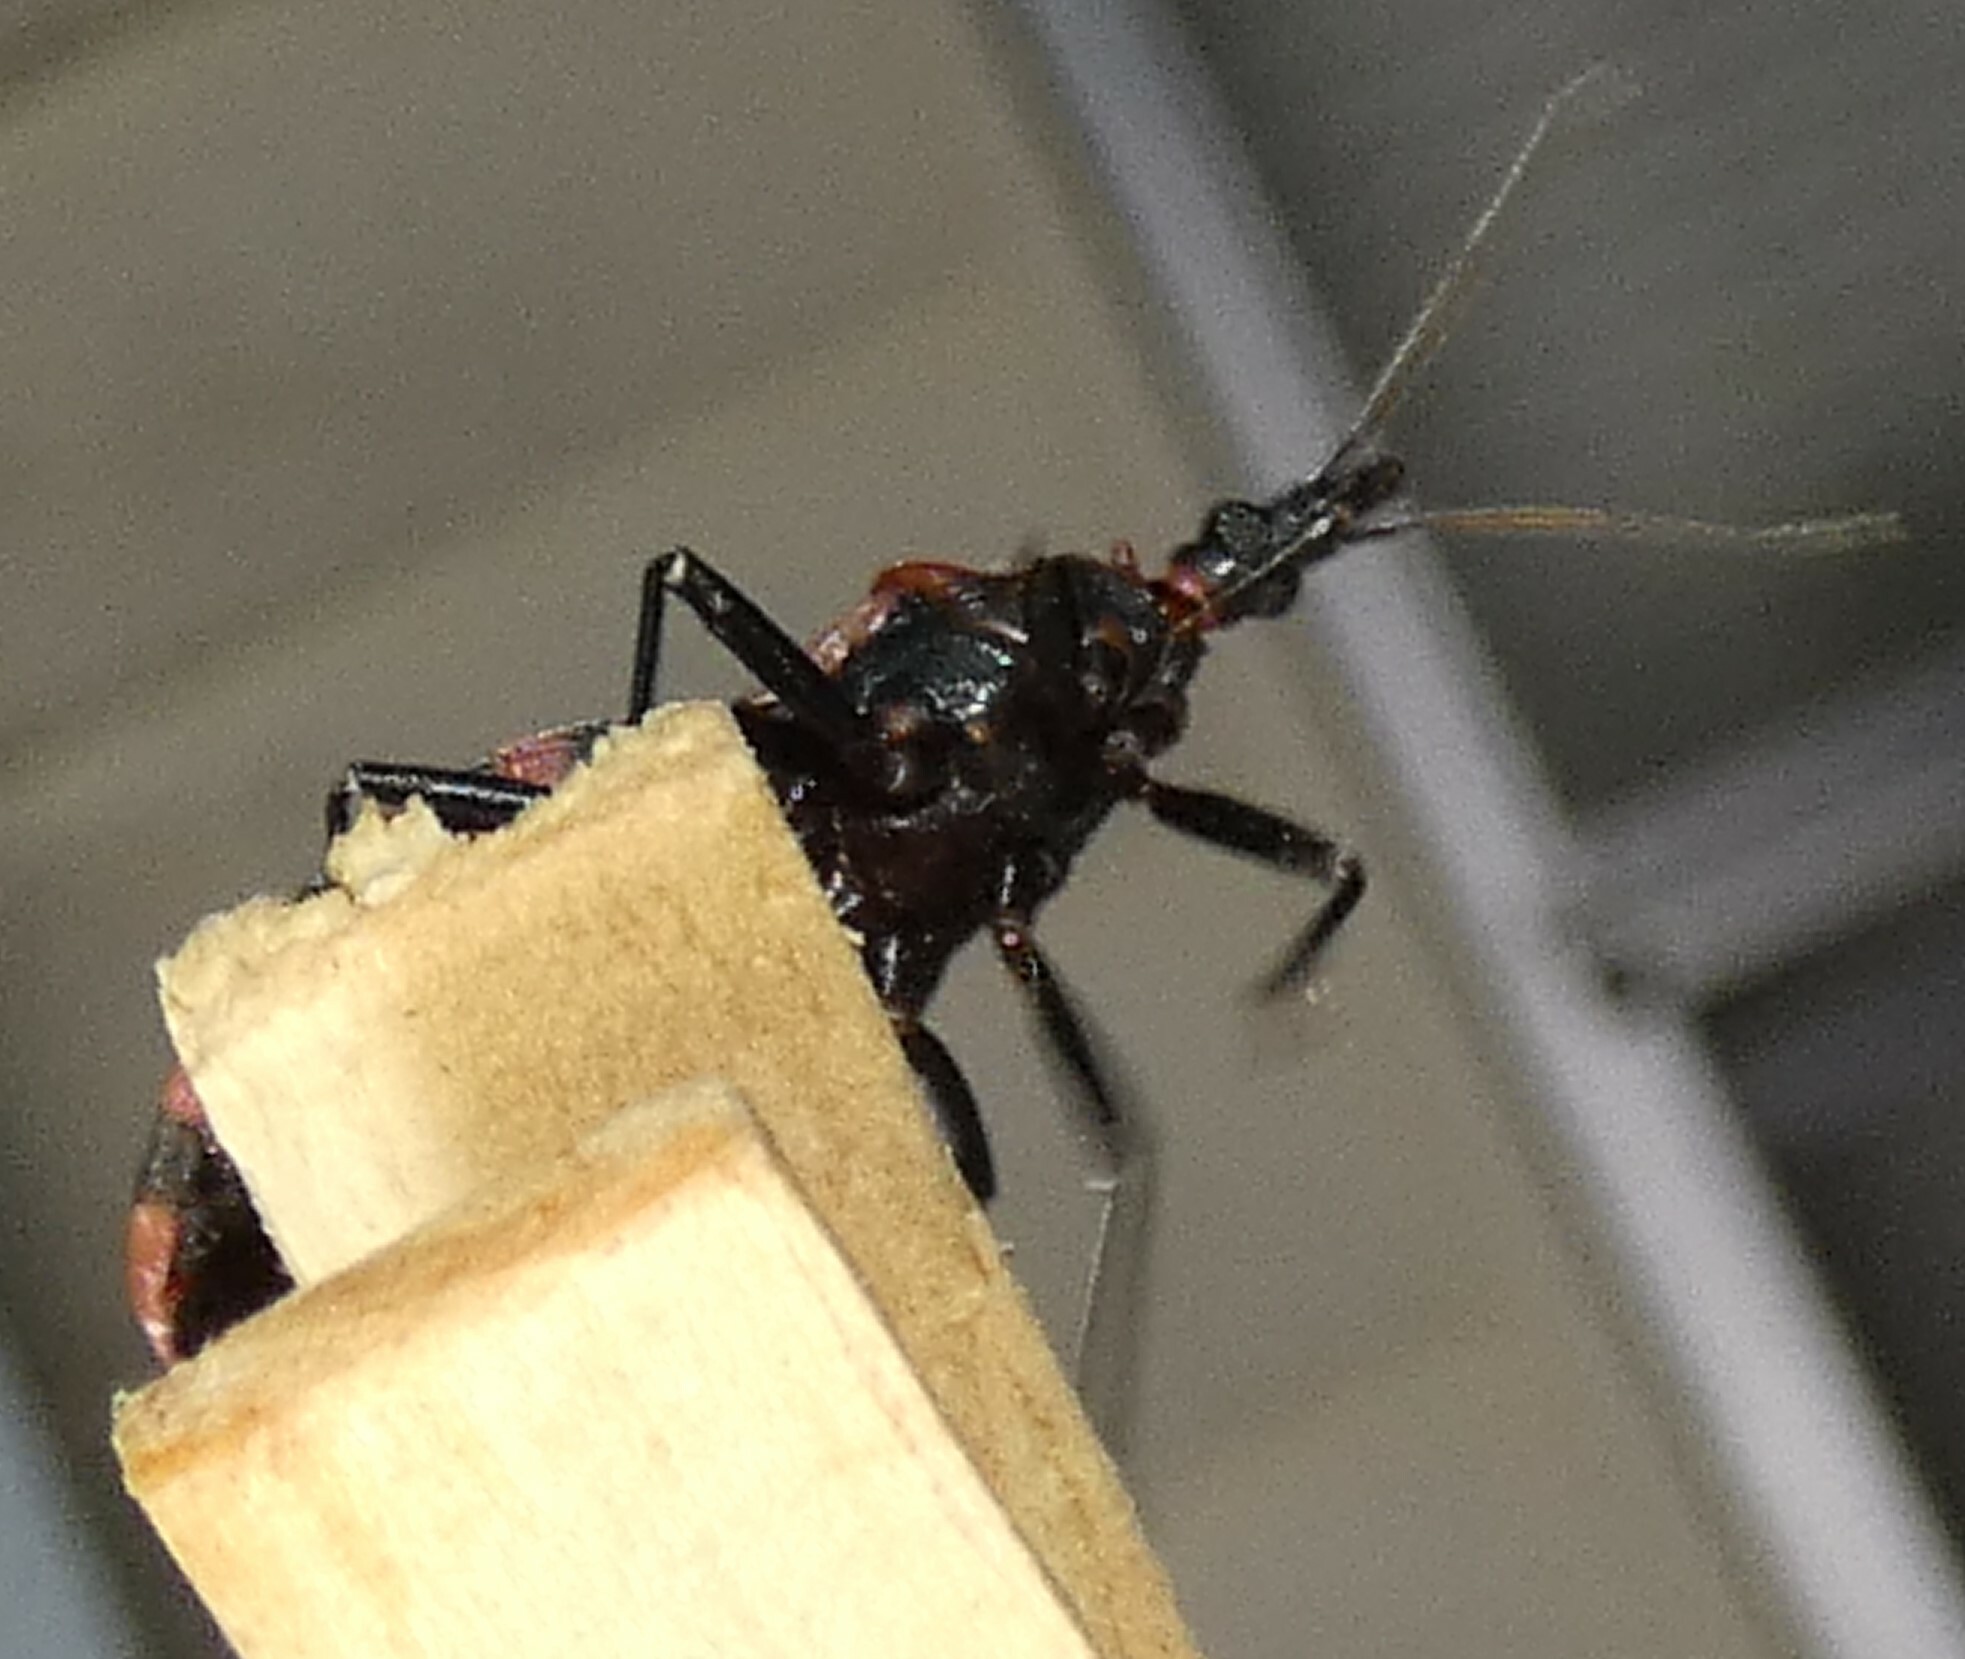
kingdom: Animalia
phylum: Arthropoda
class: Insecta
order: Hemiptera
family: Reduviidae
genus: Triatoma
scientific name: Triatoma sanguisuga
